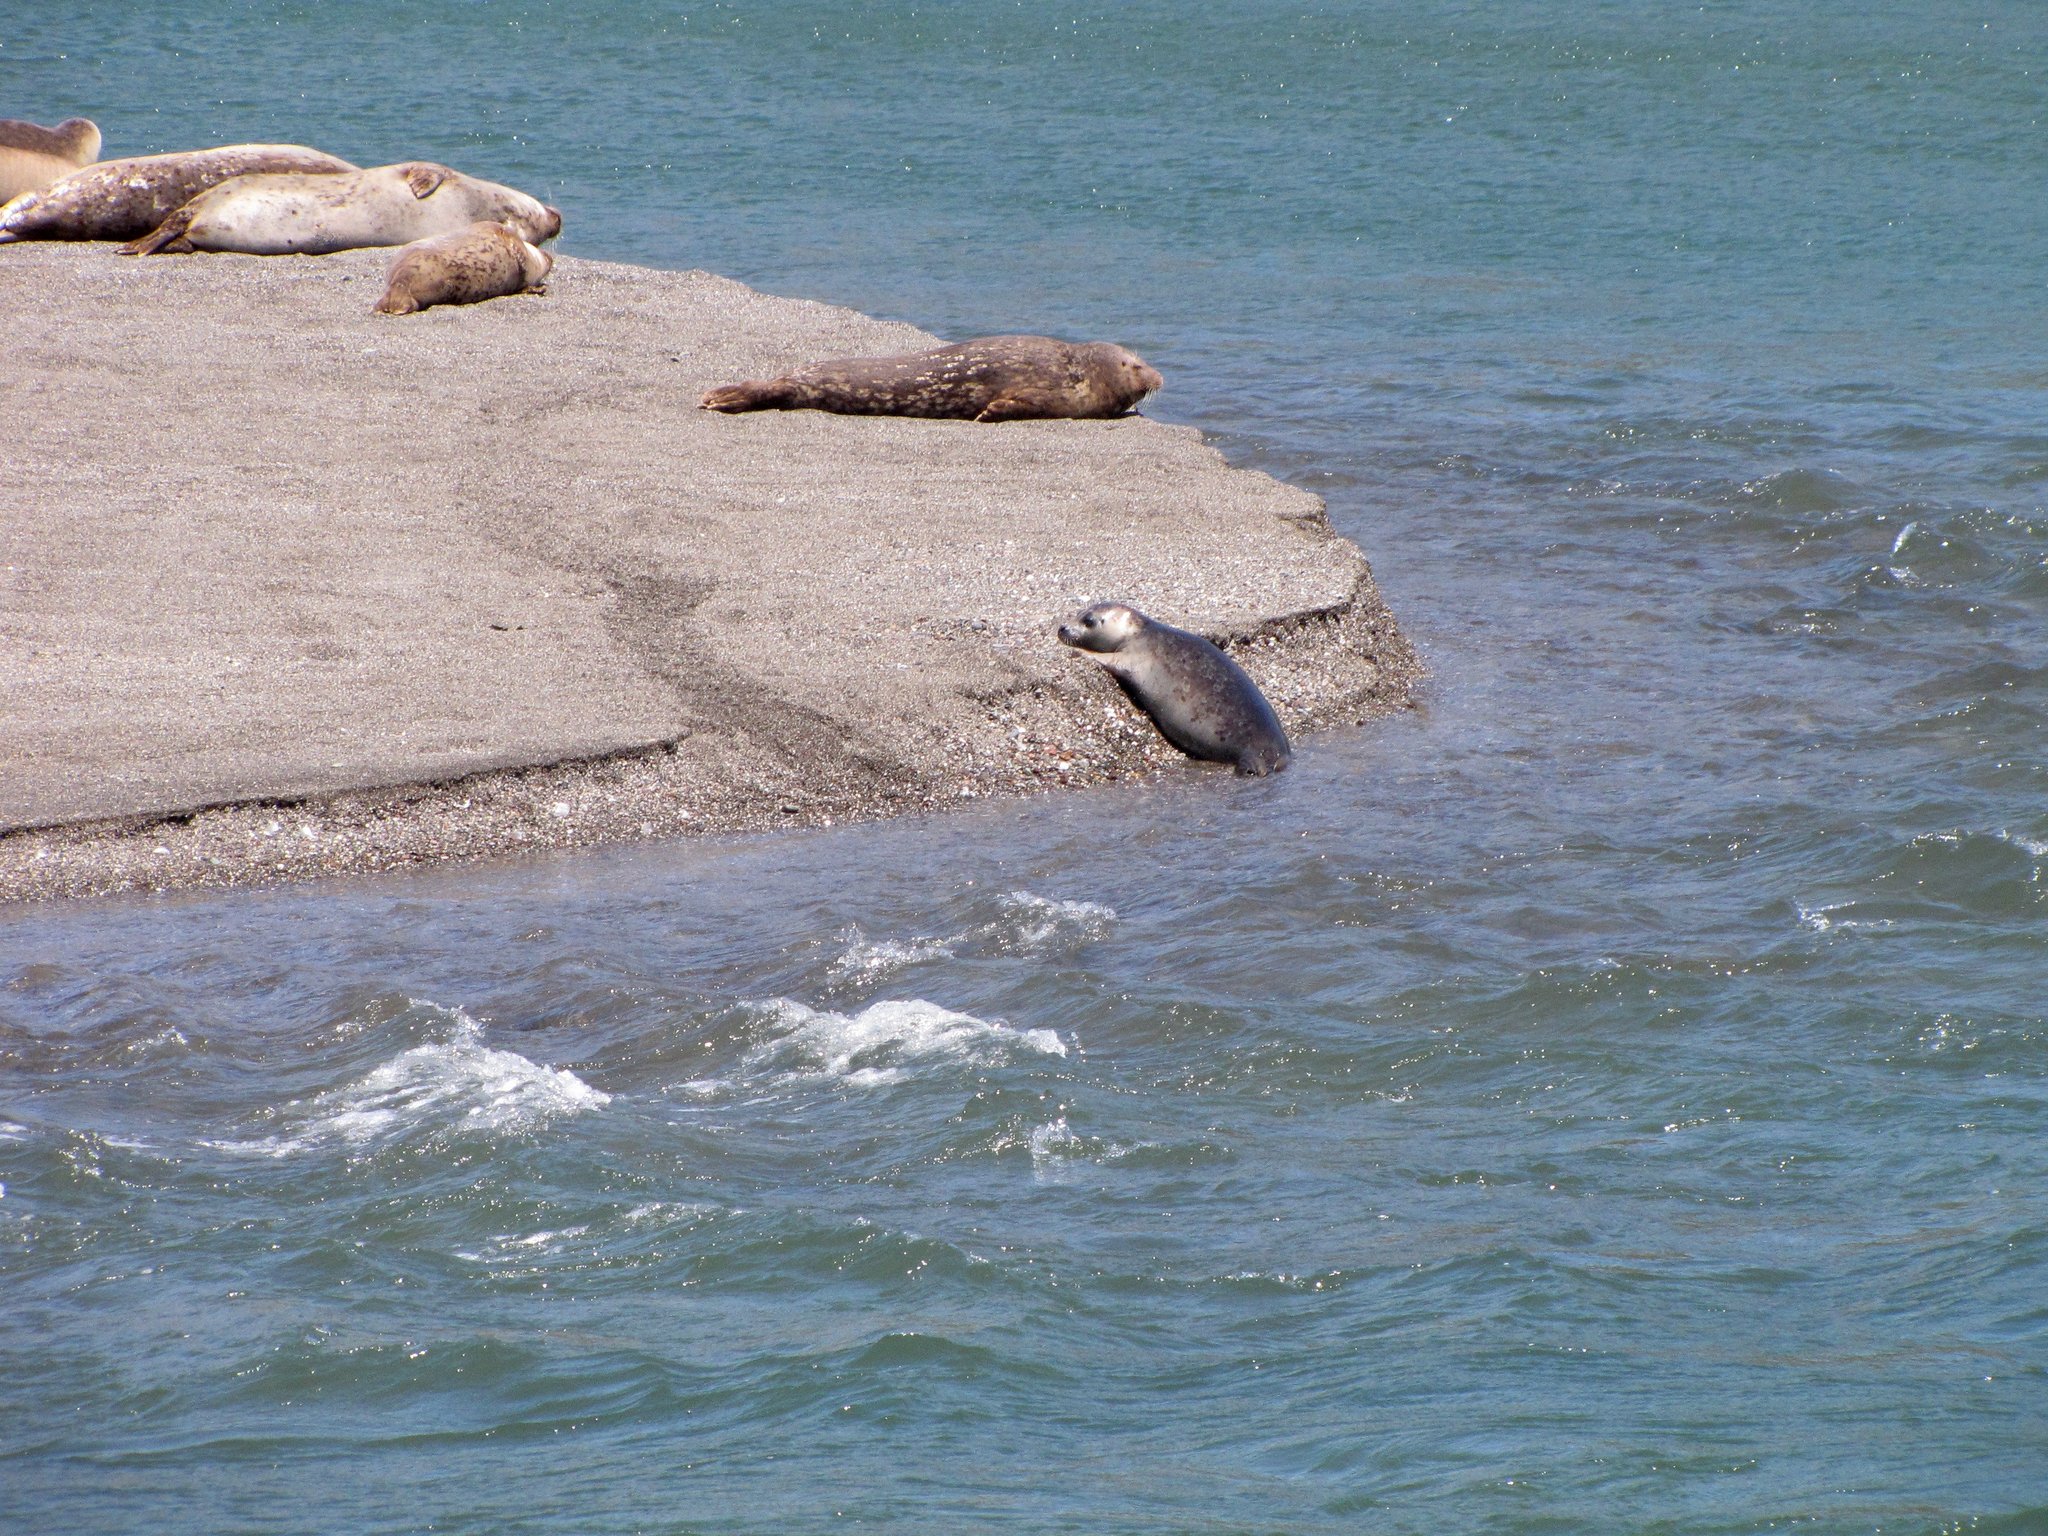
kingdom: Animalia
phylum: Chordata
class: Mammalia
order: Carnivora
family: Phocidae
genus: Phoca
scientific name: Phoca vitulina
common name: Harbor seal
